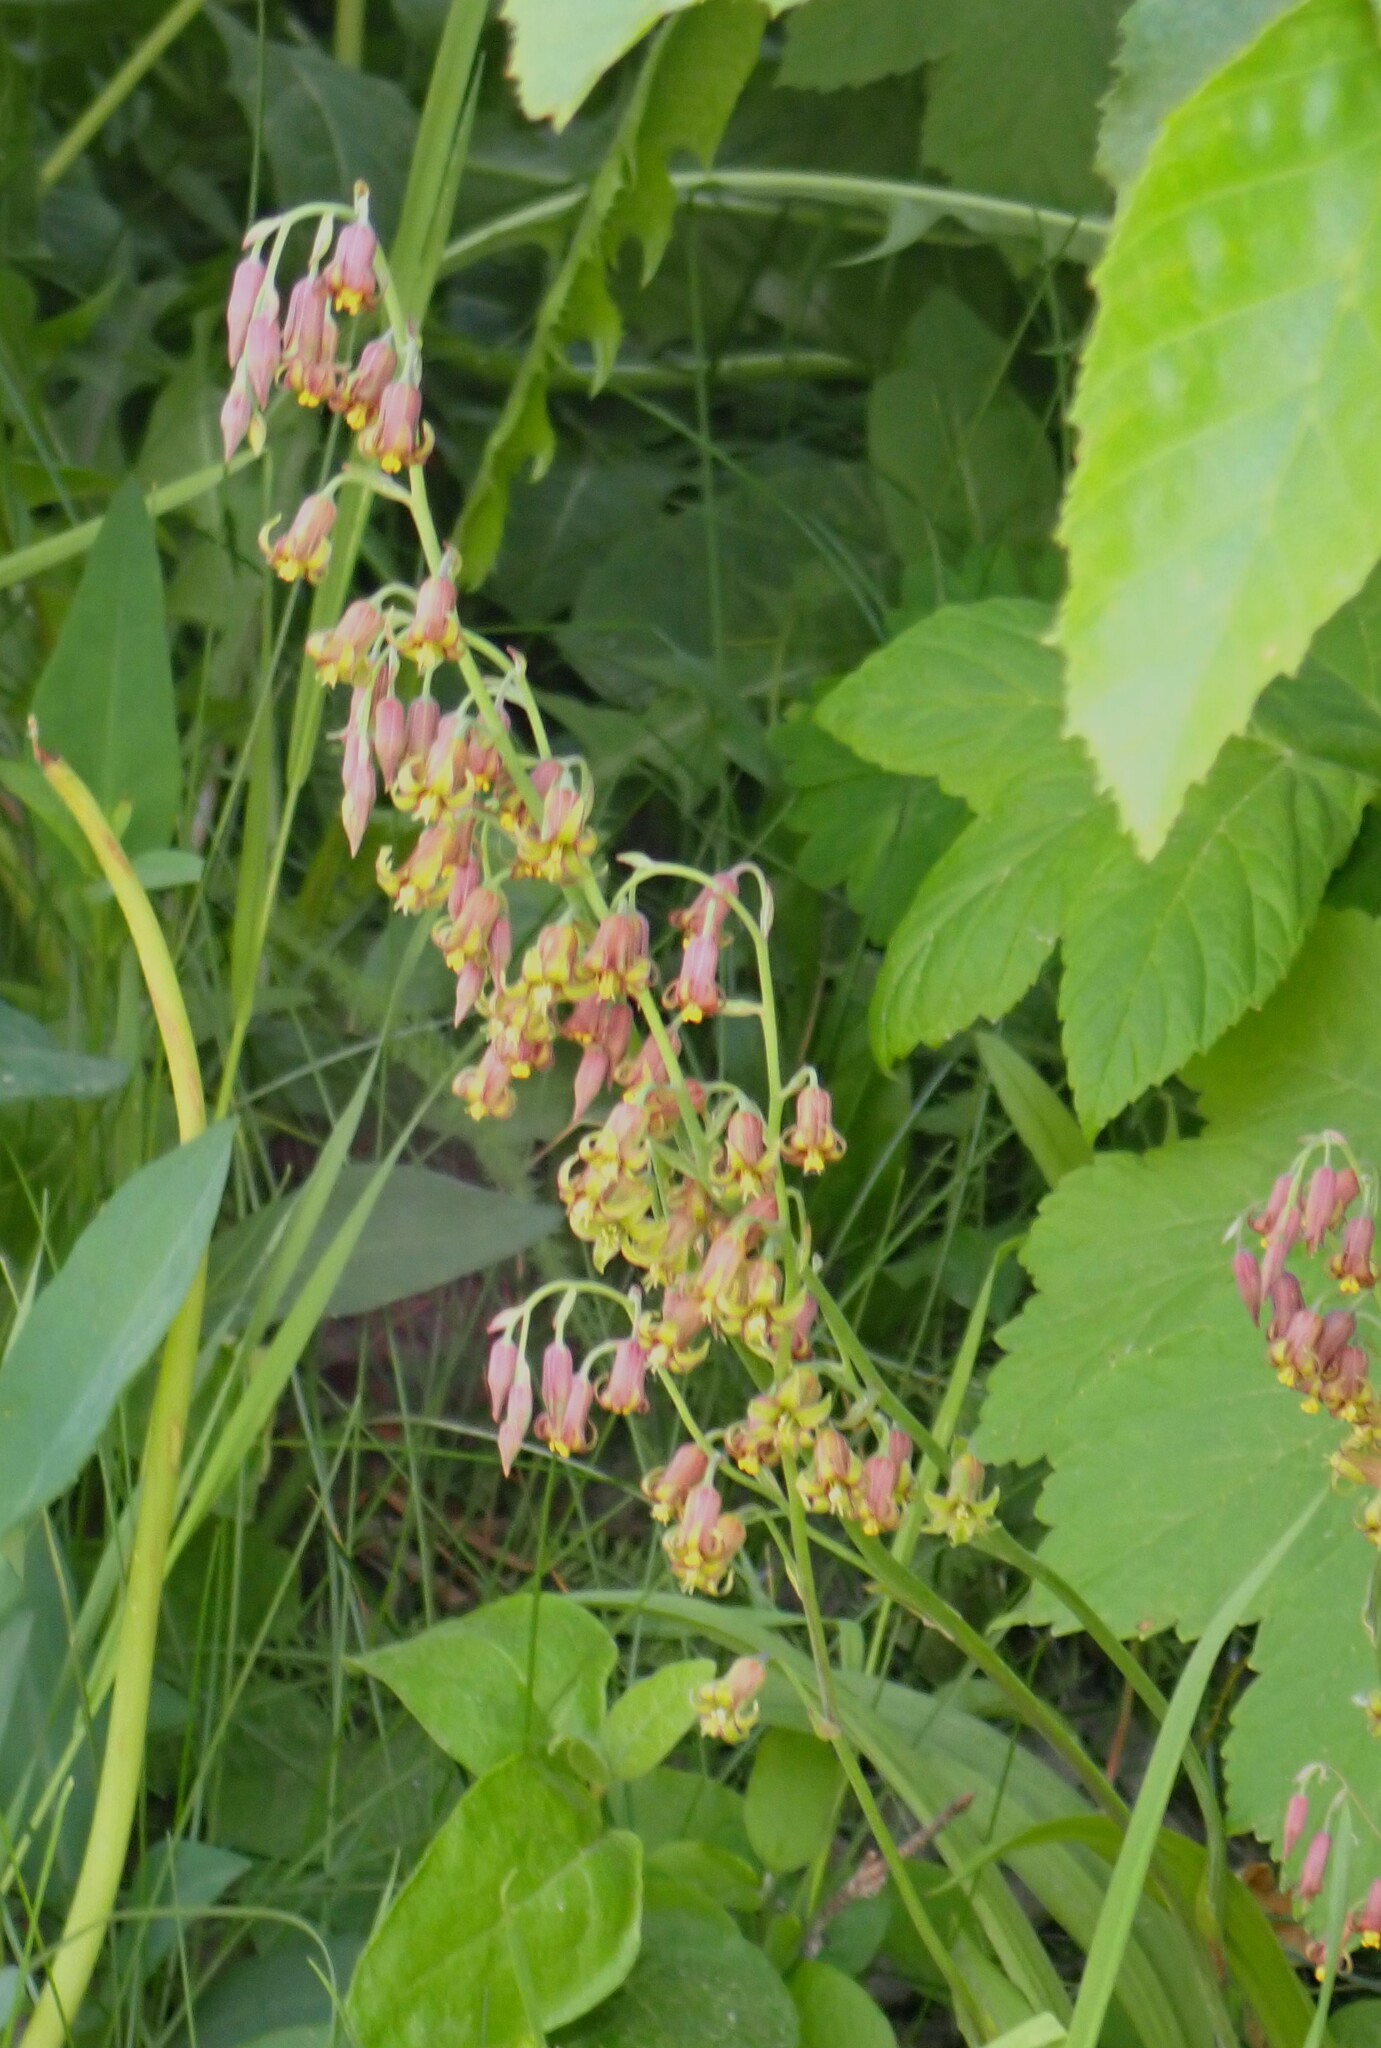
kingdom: Plantae
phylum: Tracheophyta
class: Liliopsida
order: Liliales
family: Melanthiaceae
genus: Anticlea
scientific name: Anticlea occidentalis
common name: Bronze-bells
